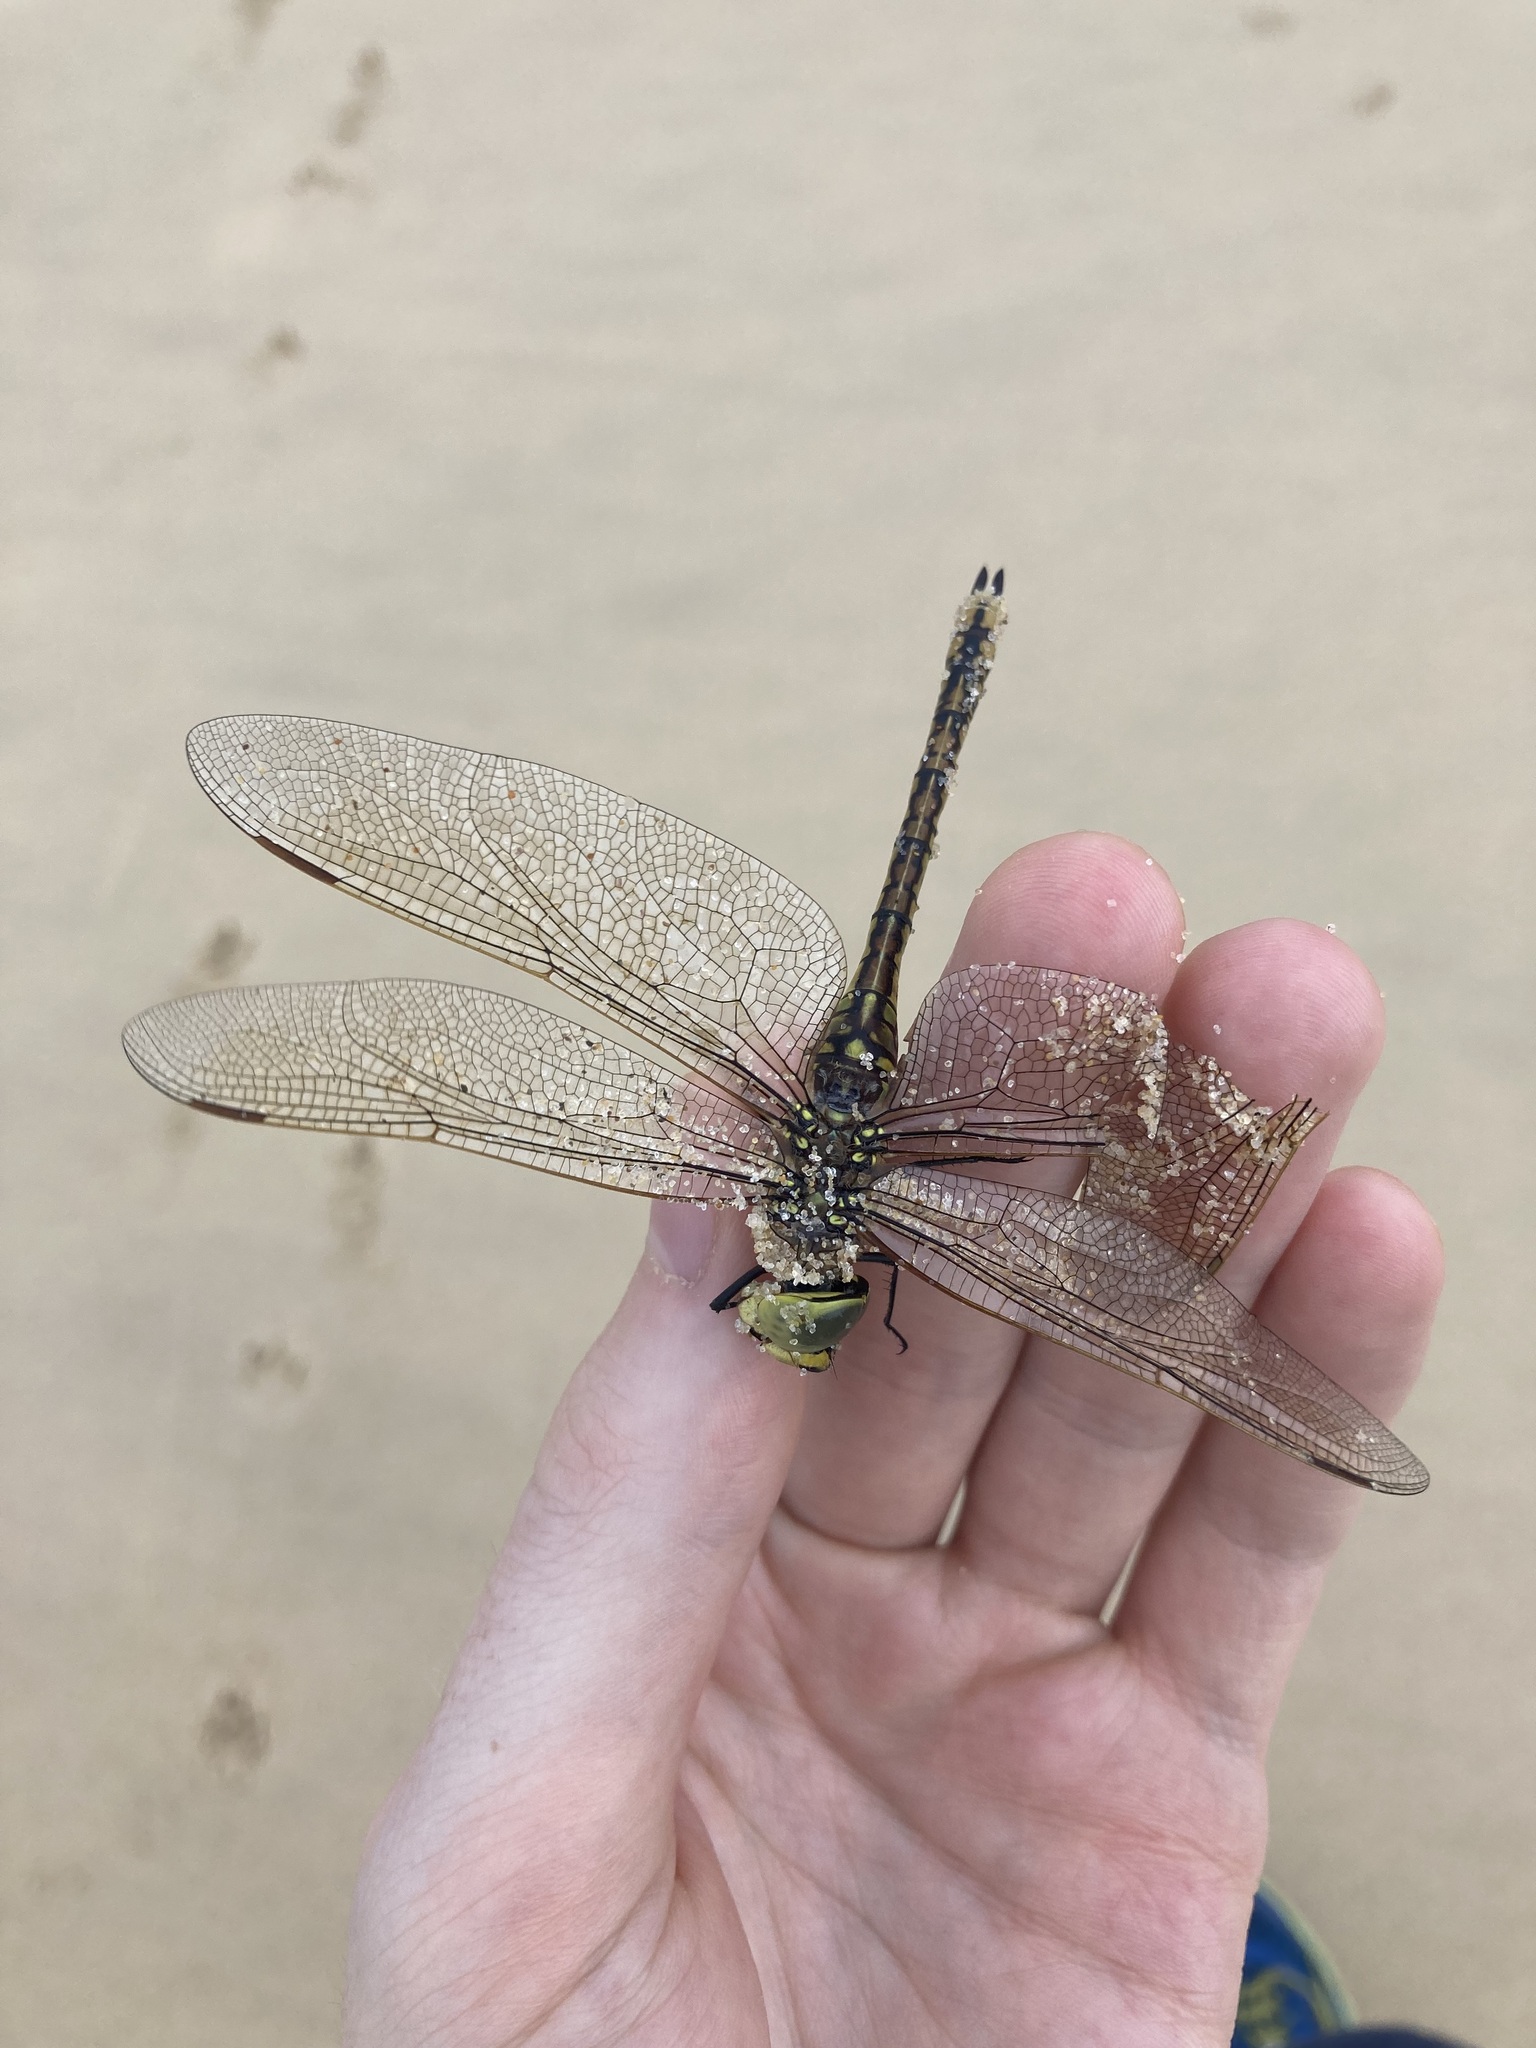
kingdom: Animalia
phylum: Arthropoda
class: Insecta
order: Odonata
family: Aeshnidae
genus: Anax
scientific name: Anax papuensis
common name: Australian emperor
